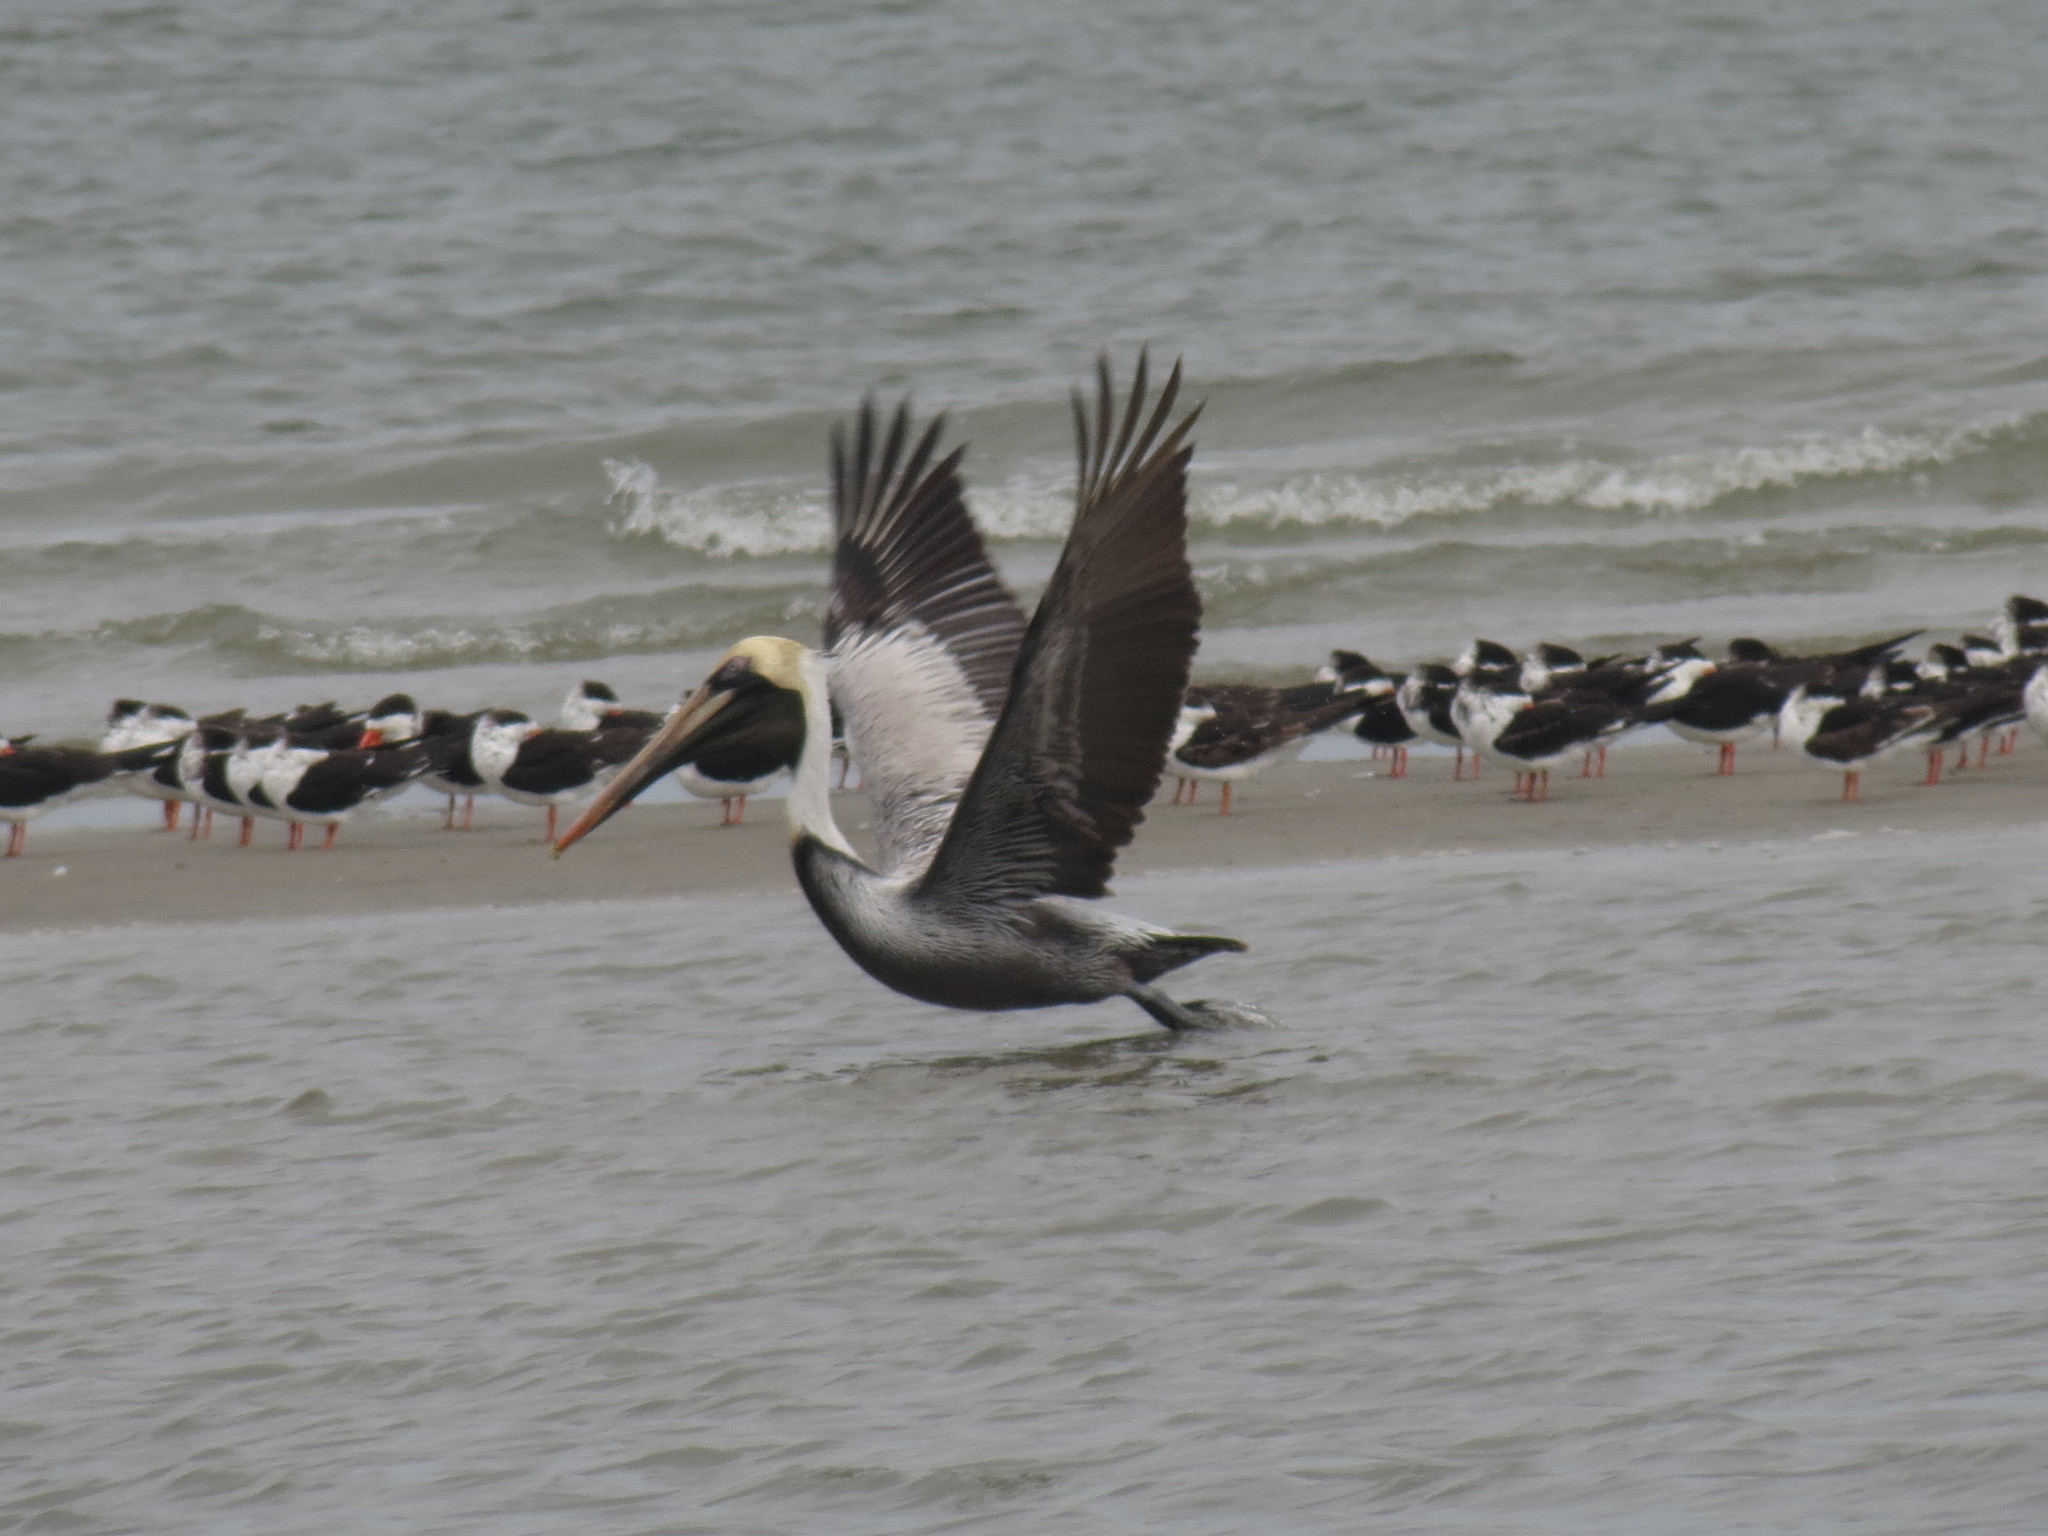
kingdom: Animalia
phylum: Chordata
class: Aves
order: Pelecaniformes
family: Pelecanidae
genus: Pelecanus
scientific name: Pelecanus occidentalis
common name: Brown pelican
